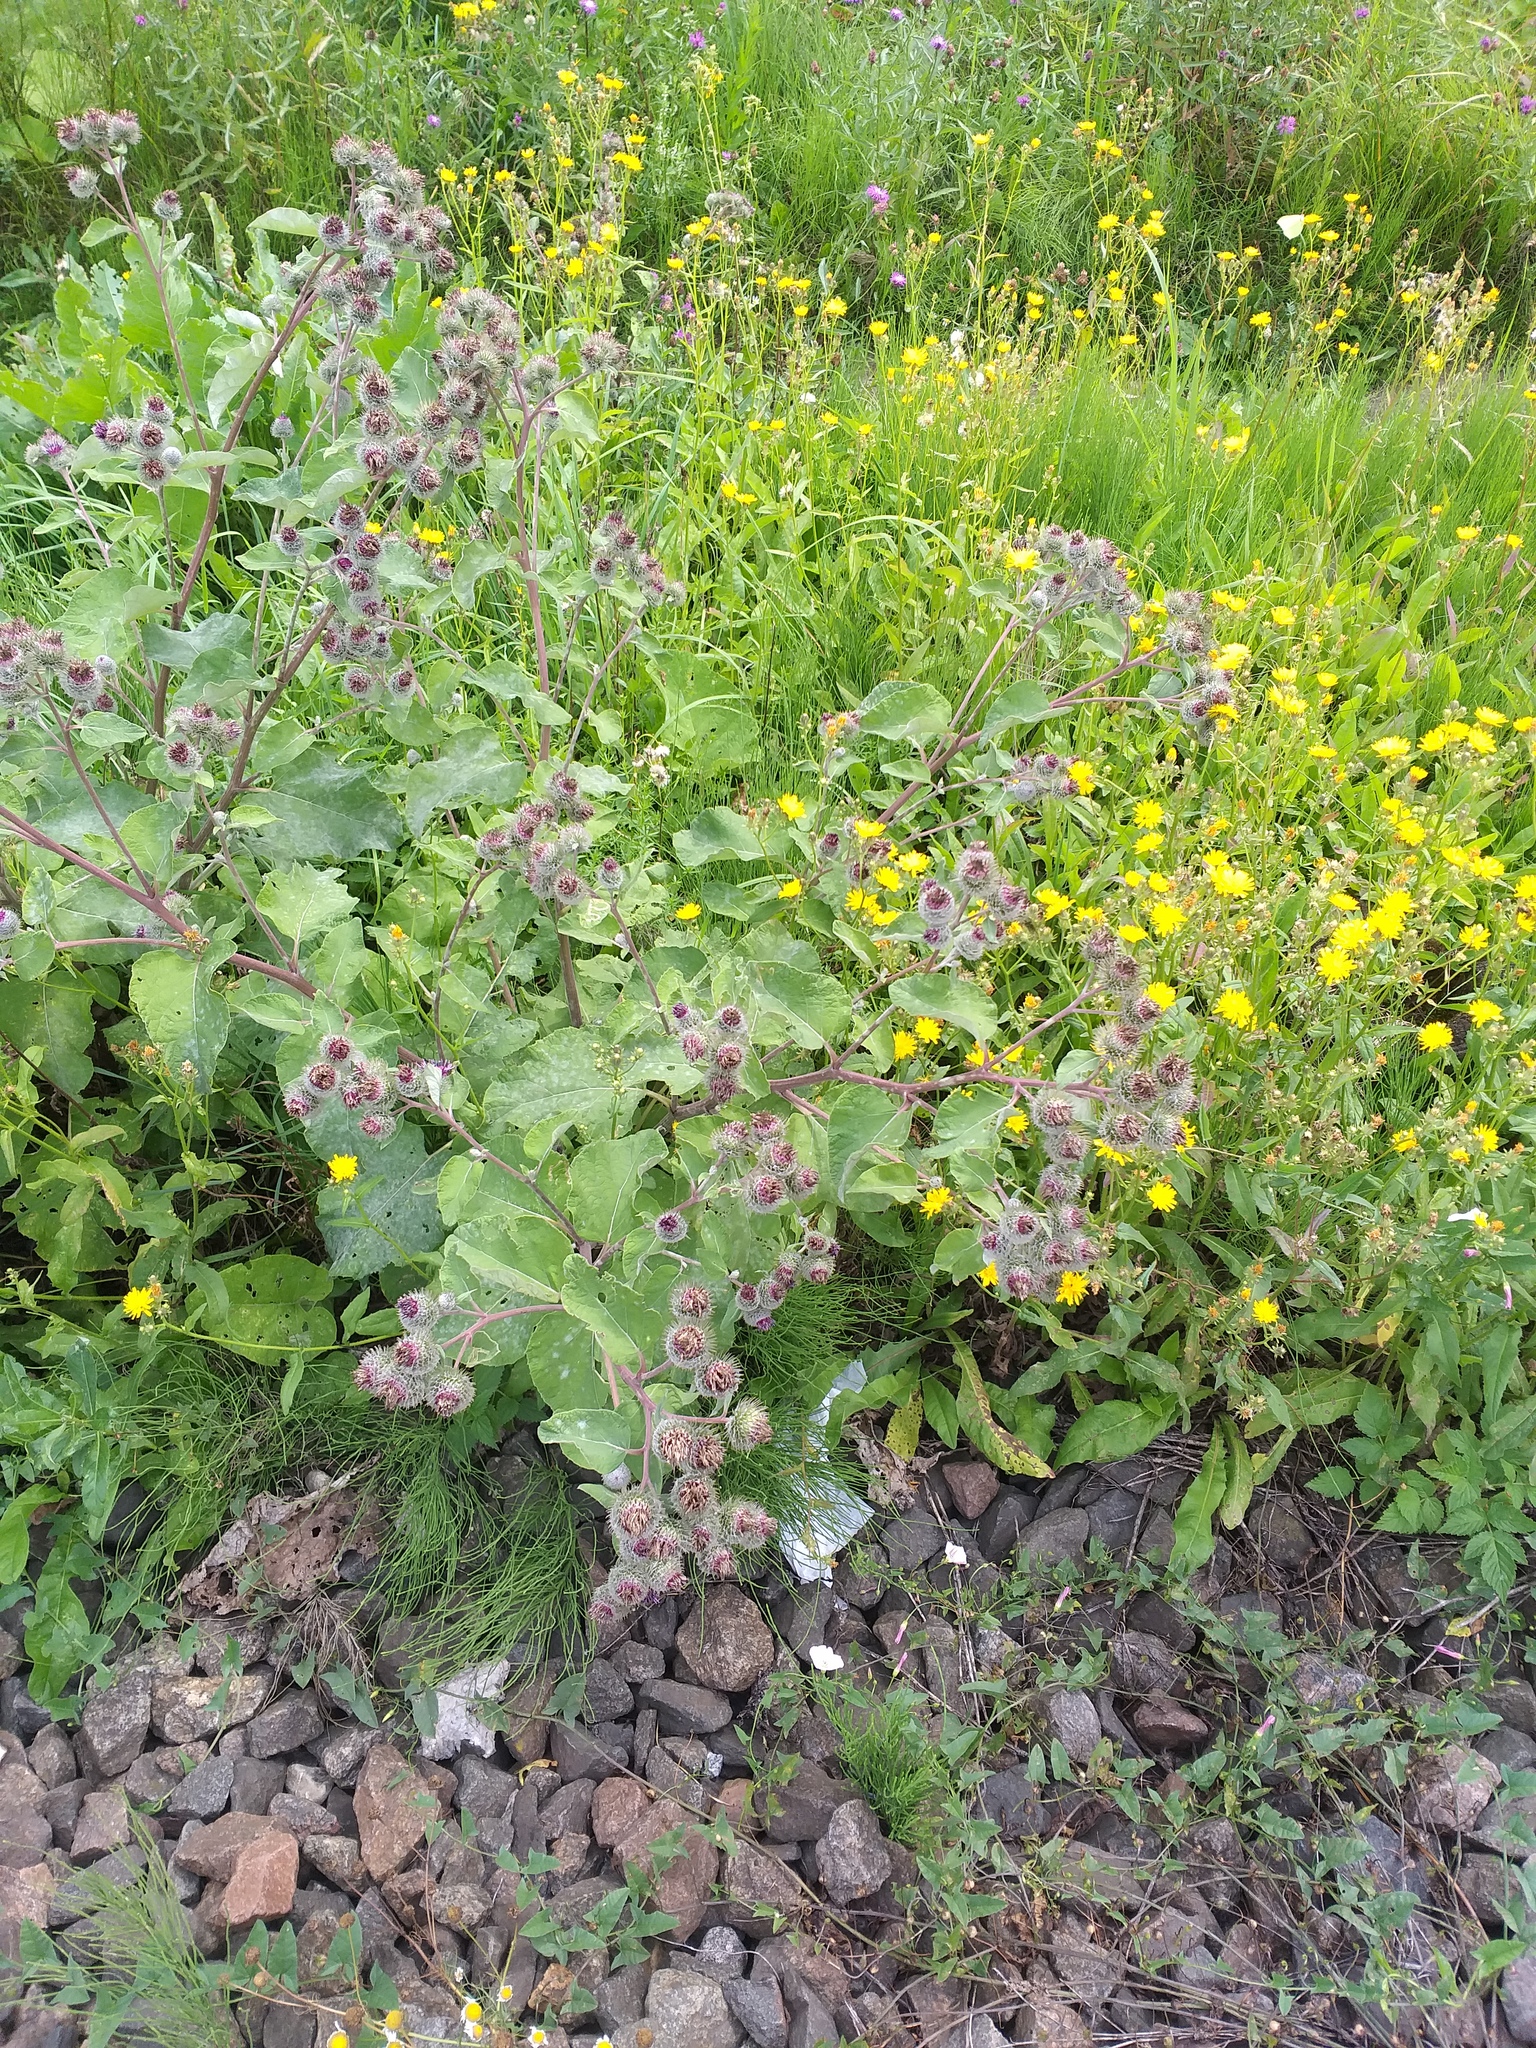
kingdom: Plantae
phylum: Tracheophyta
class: Magnoliopsida
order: Asterales
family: Asteraceae
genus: Arctium
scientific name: Arctium tomentosum
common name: Woolly burdock
